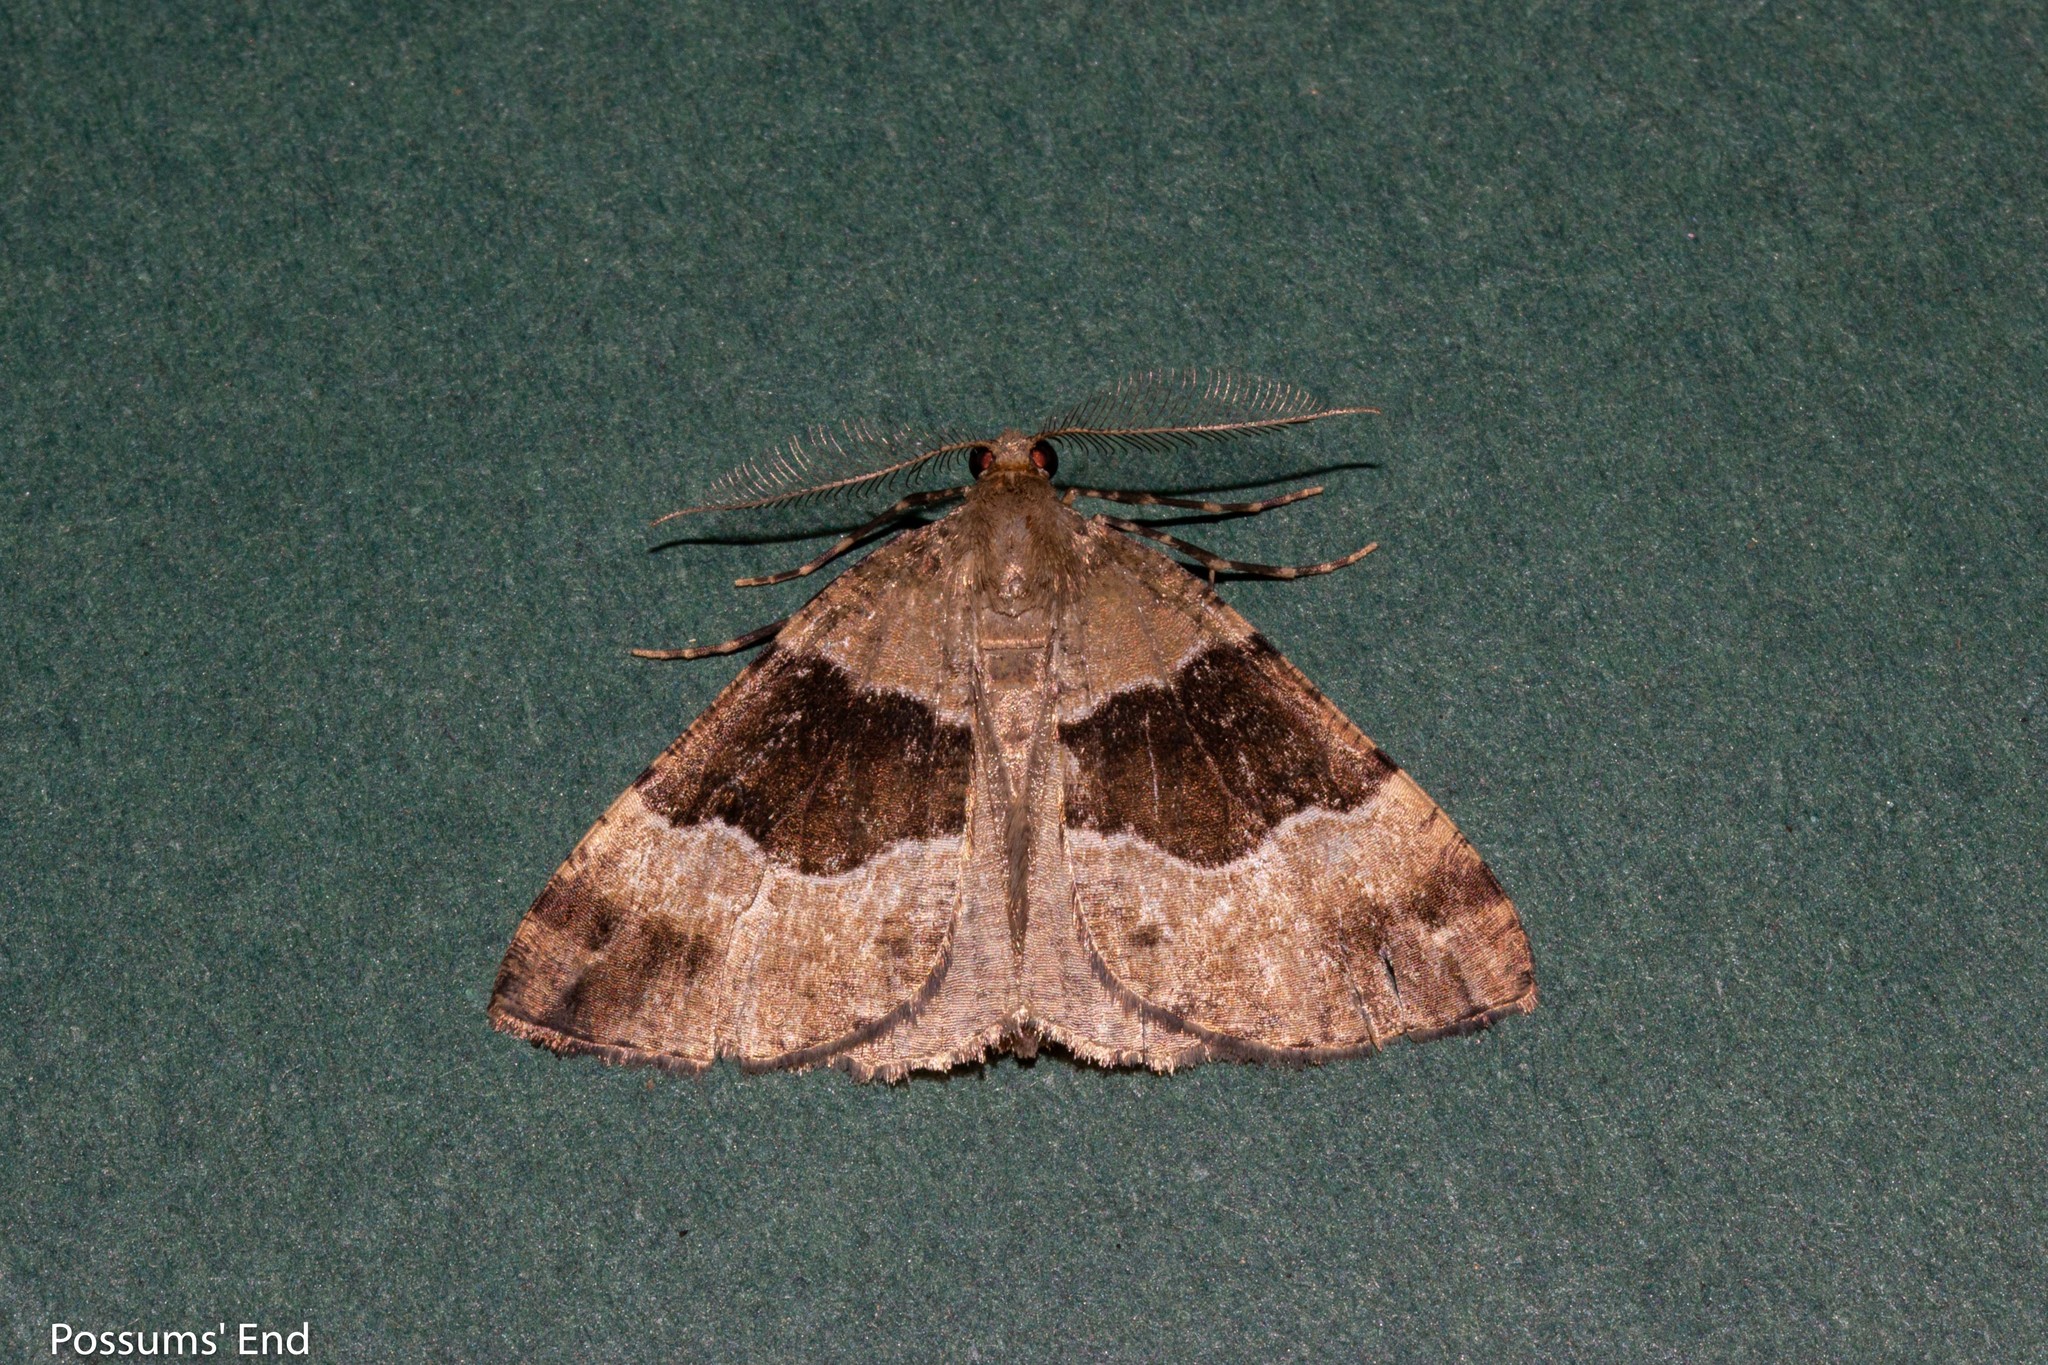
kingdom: Animalia
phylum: Arthropoda
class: Insecta
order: Lepidoptera
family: Geometridae
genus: Pseudocoremia
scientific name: Pseudocoremia
